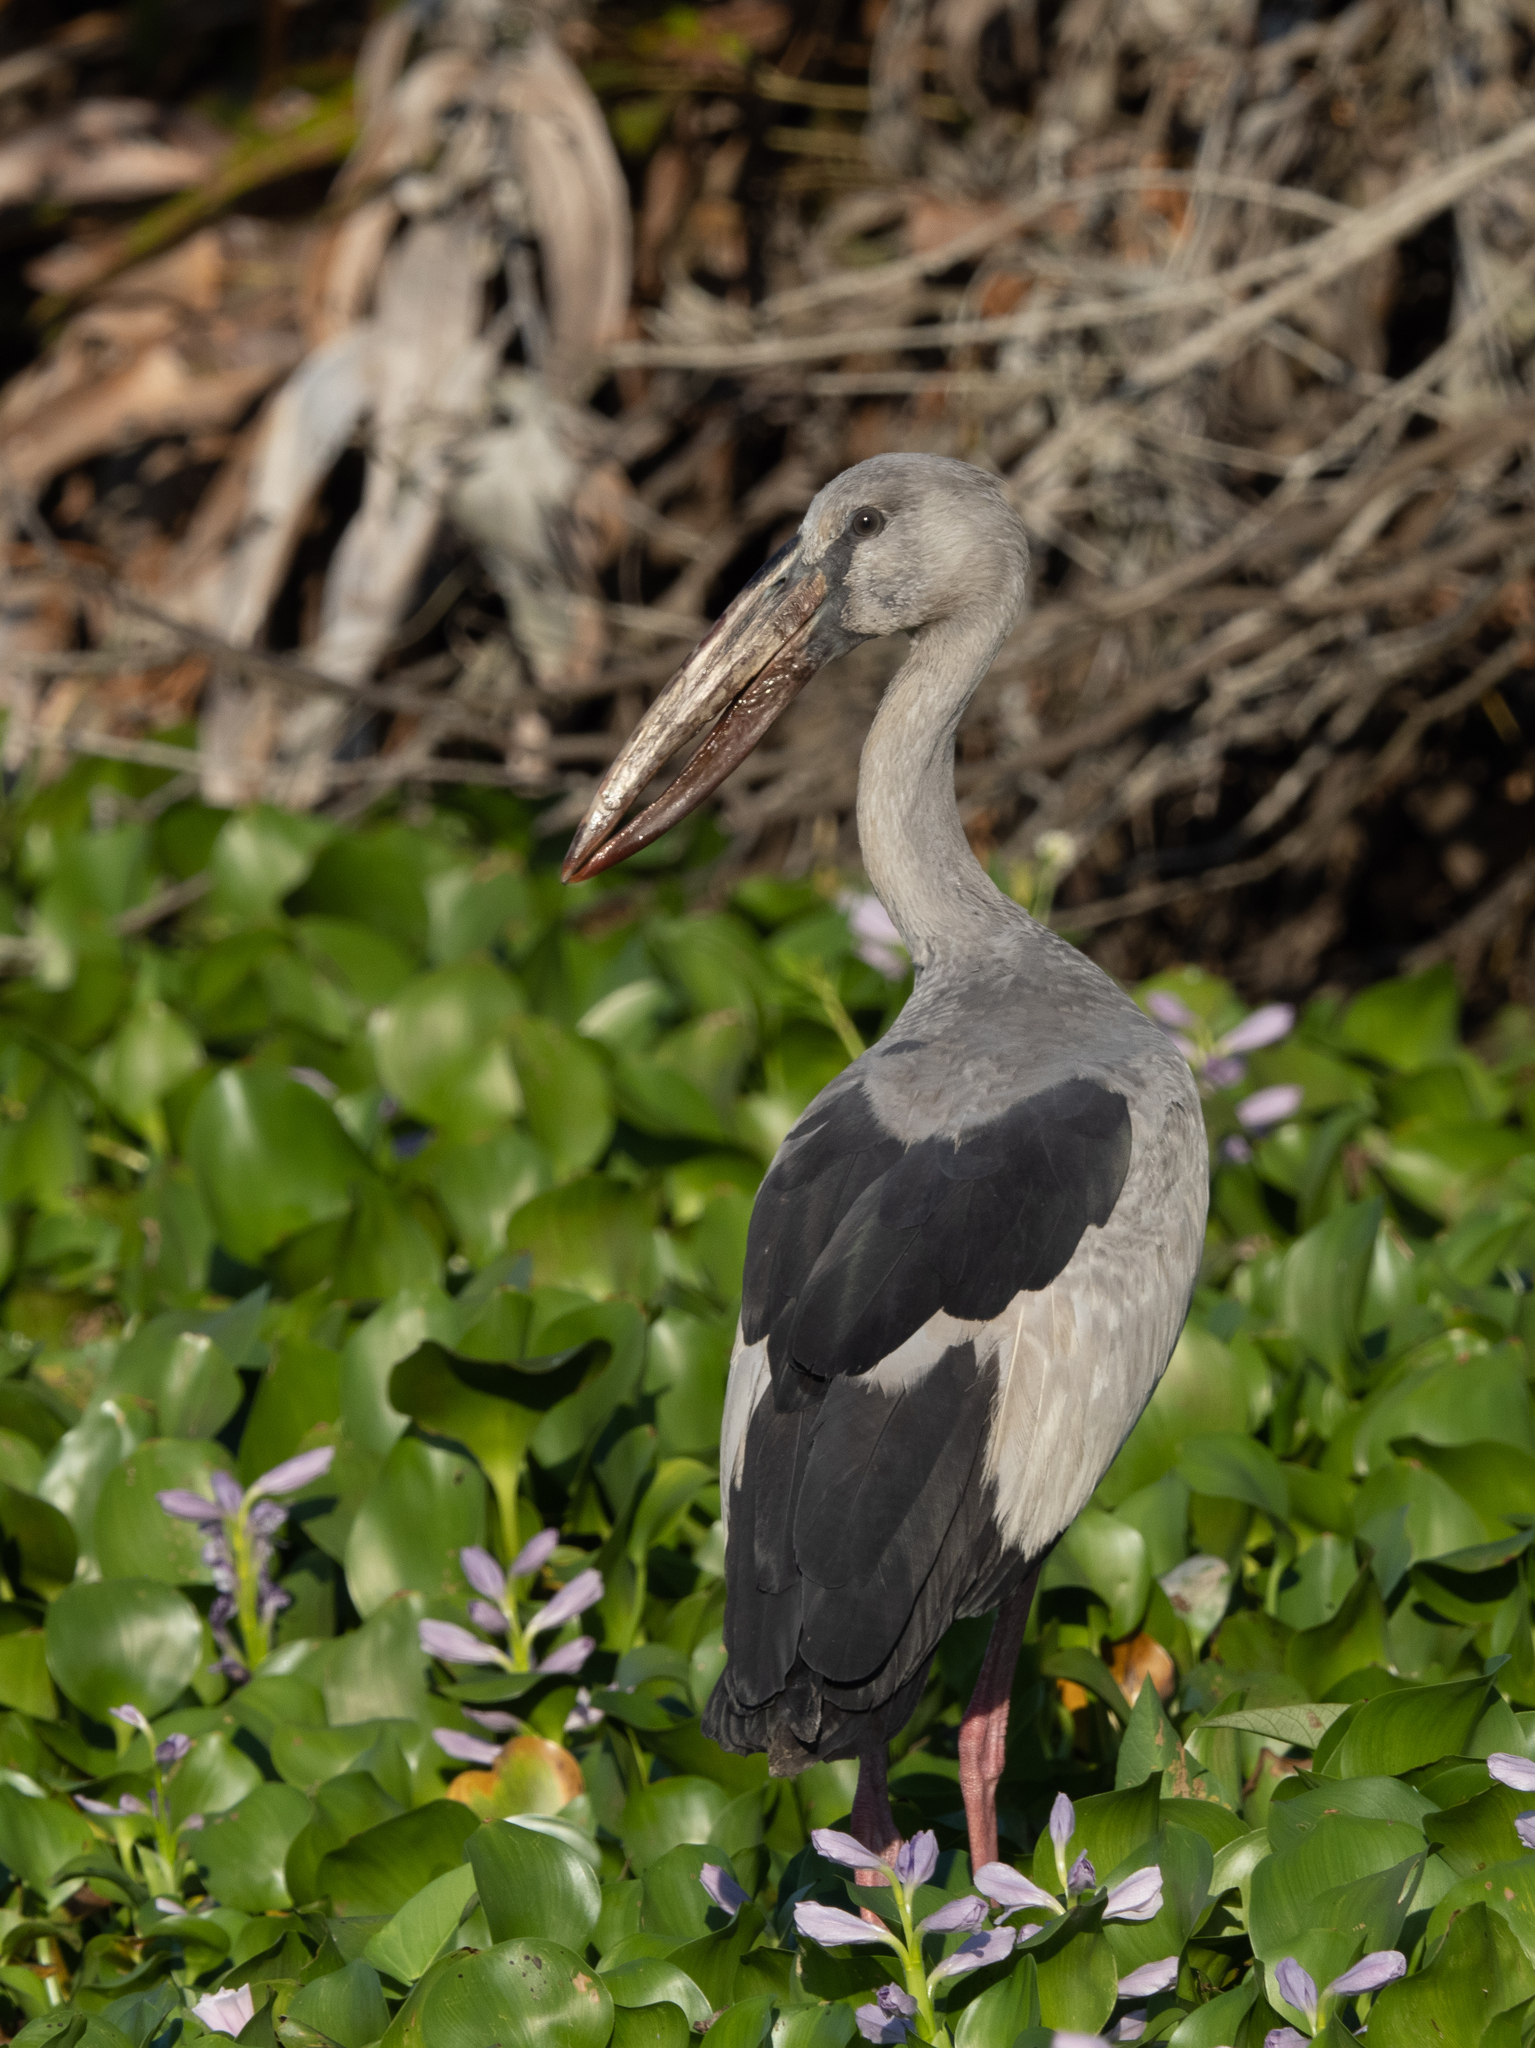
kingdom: Animalia
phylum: Chordata
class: Aves
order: Ciconiiformes
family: Ciconiidae
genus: Anastomus
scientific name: Anastomus oscitans
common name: Asian openbill
